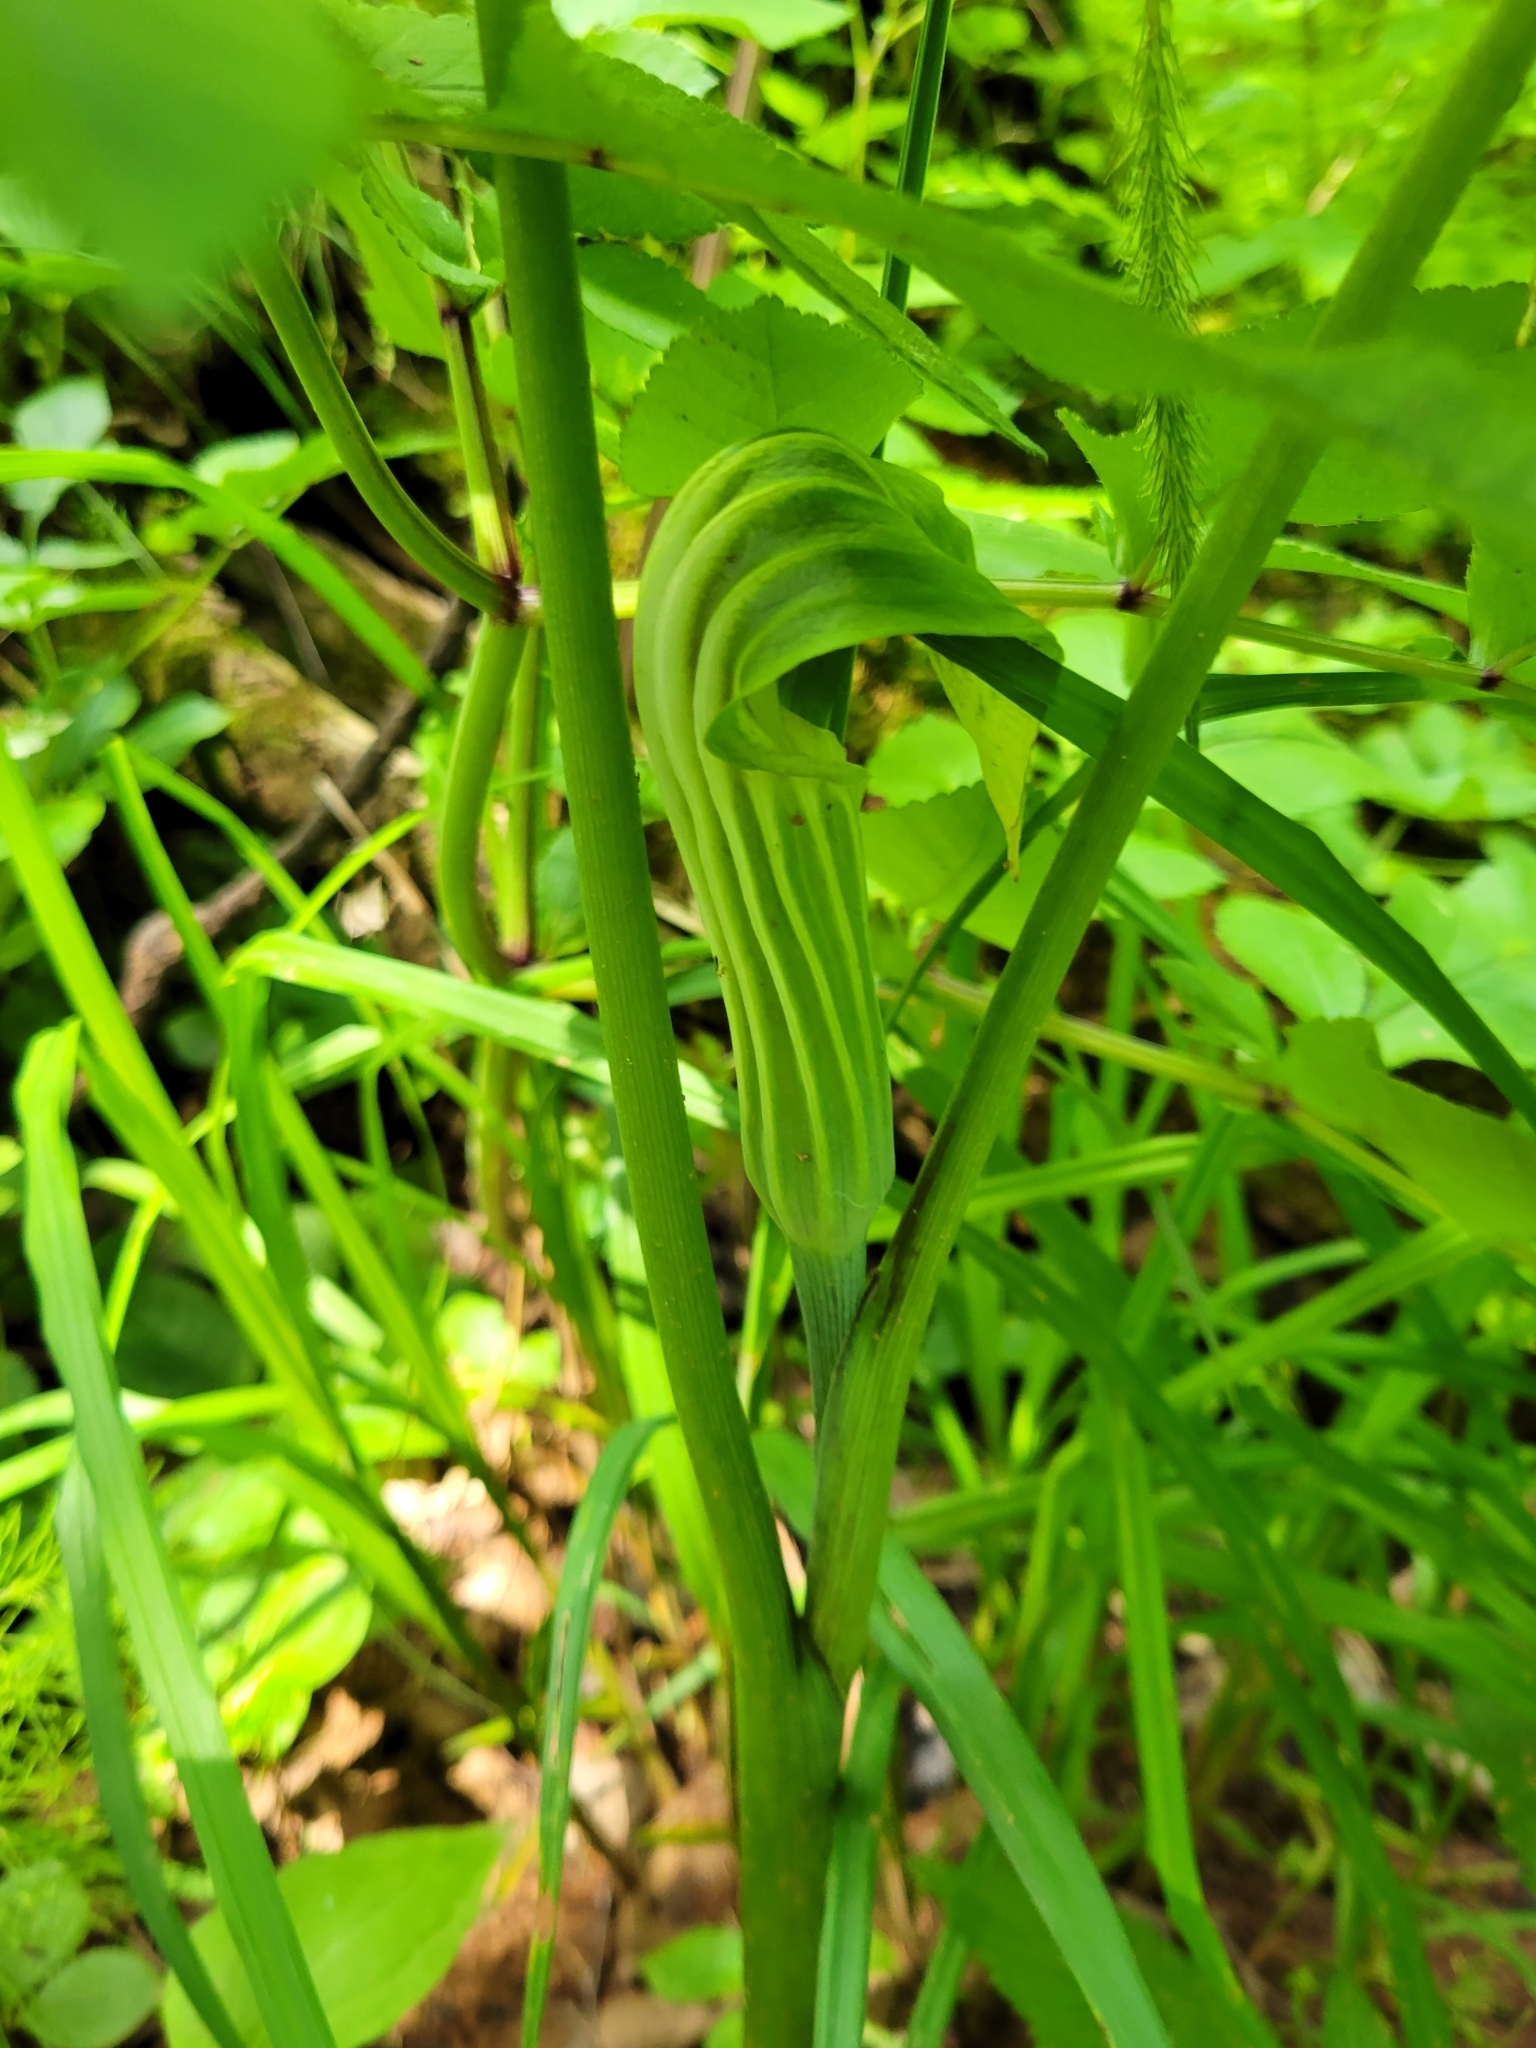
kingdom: Plantae
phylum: Tracheophyta
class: Liliopsida
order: Alismatales
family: Araceae
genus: Arisaema
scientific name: Arisaema stewardsonii
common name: Swamp jack-in-the-pulpit
